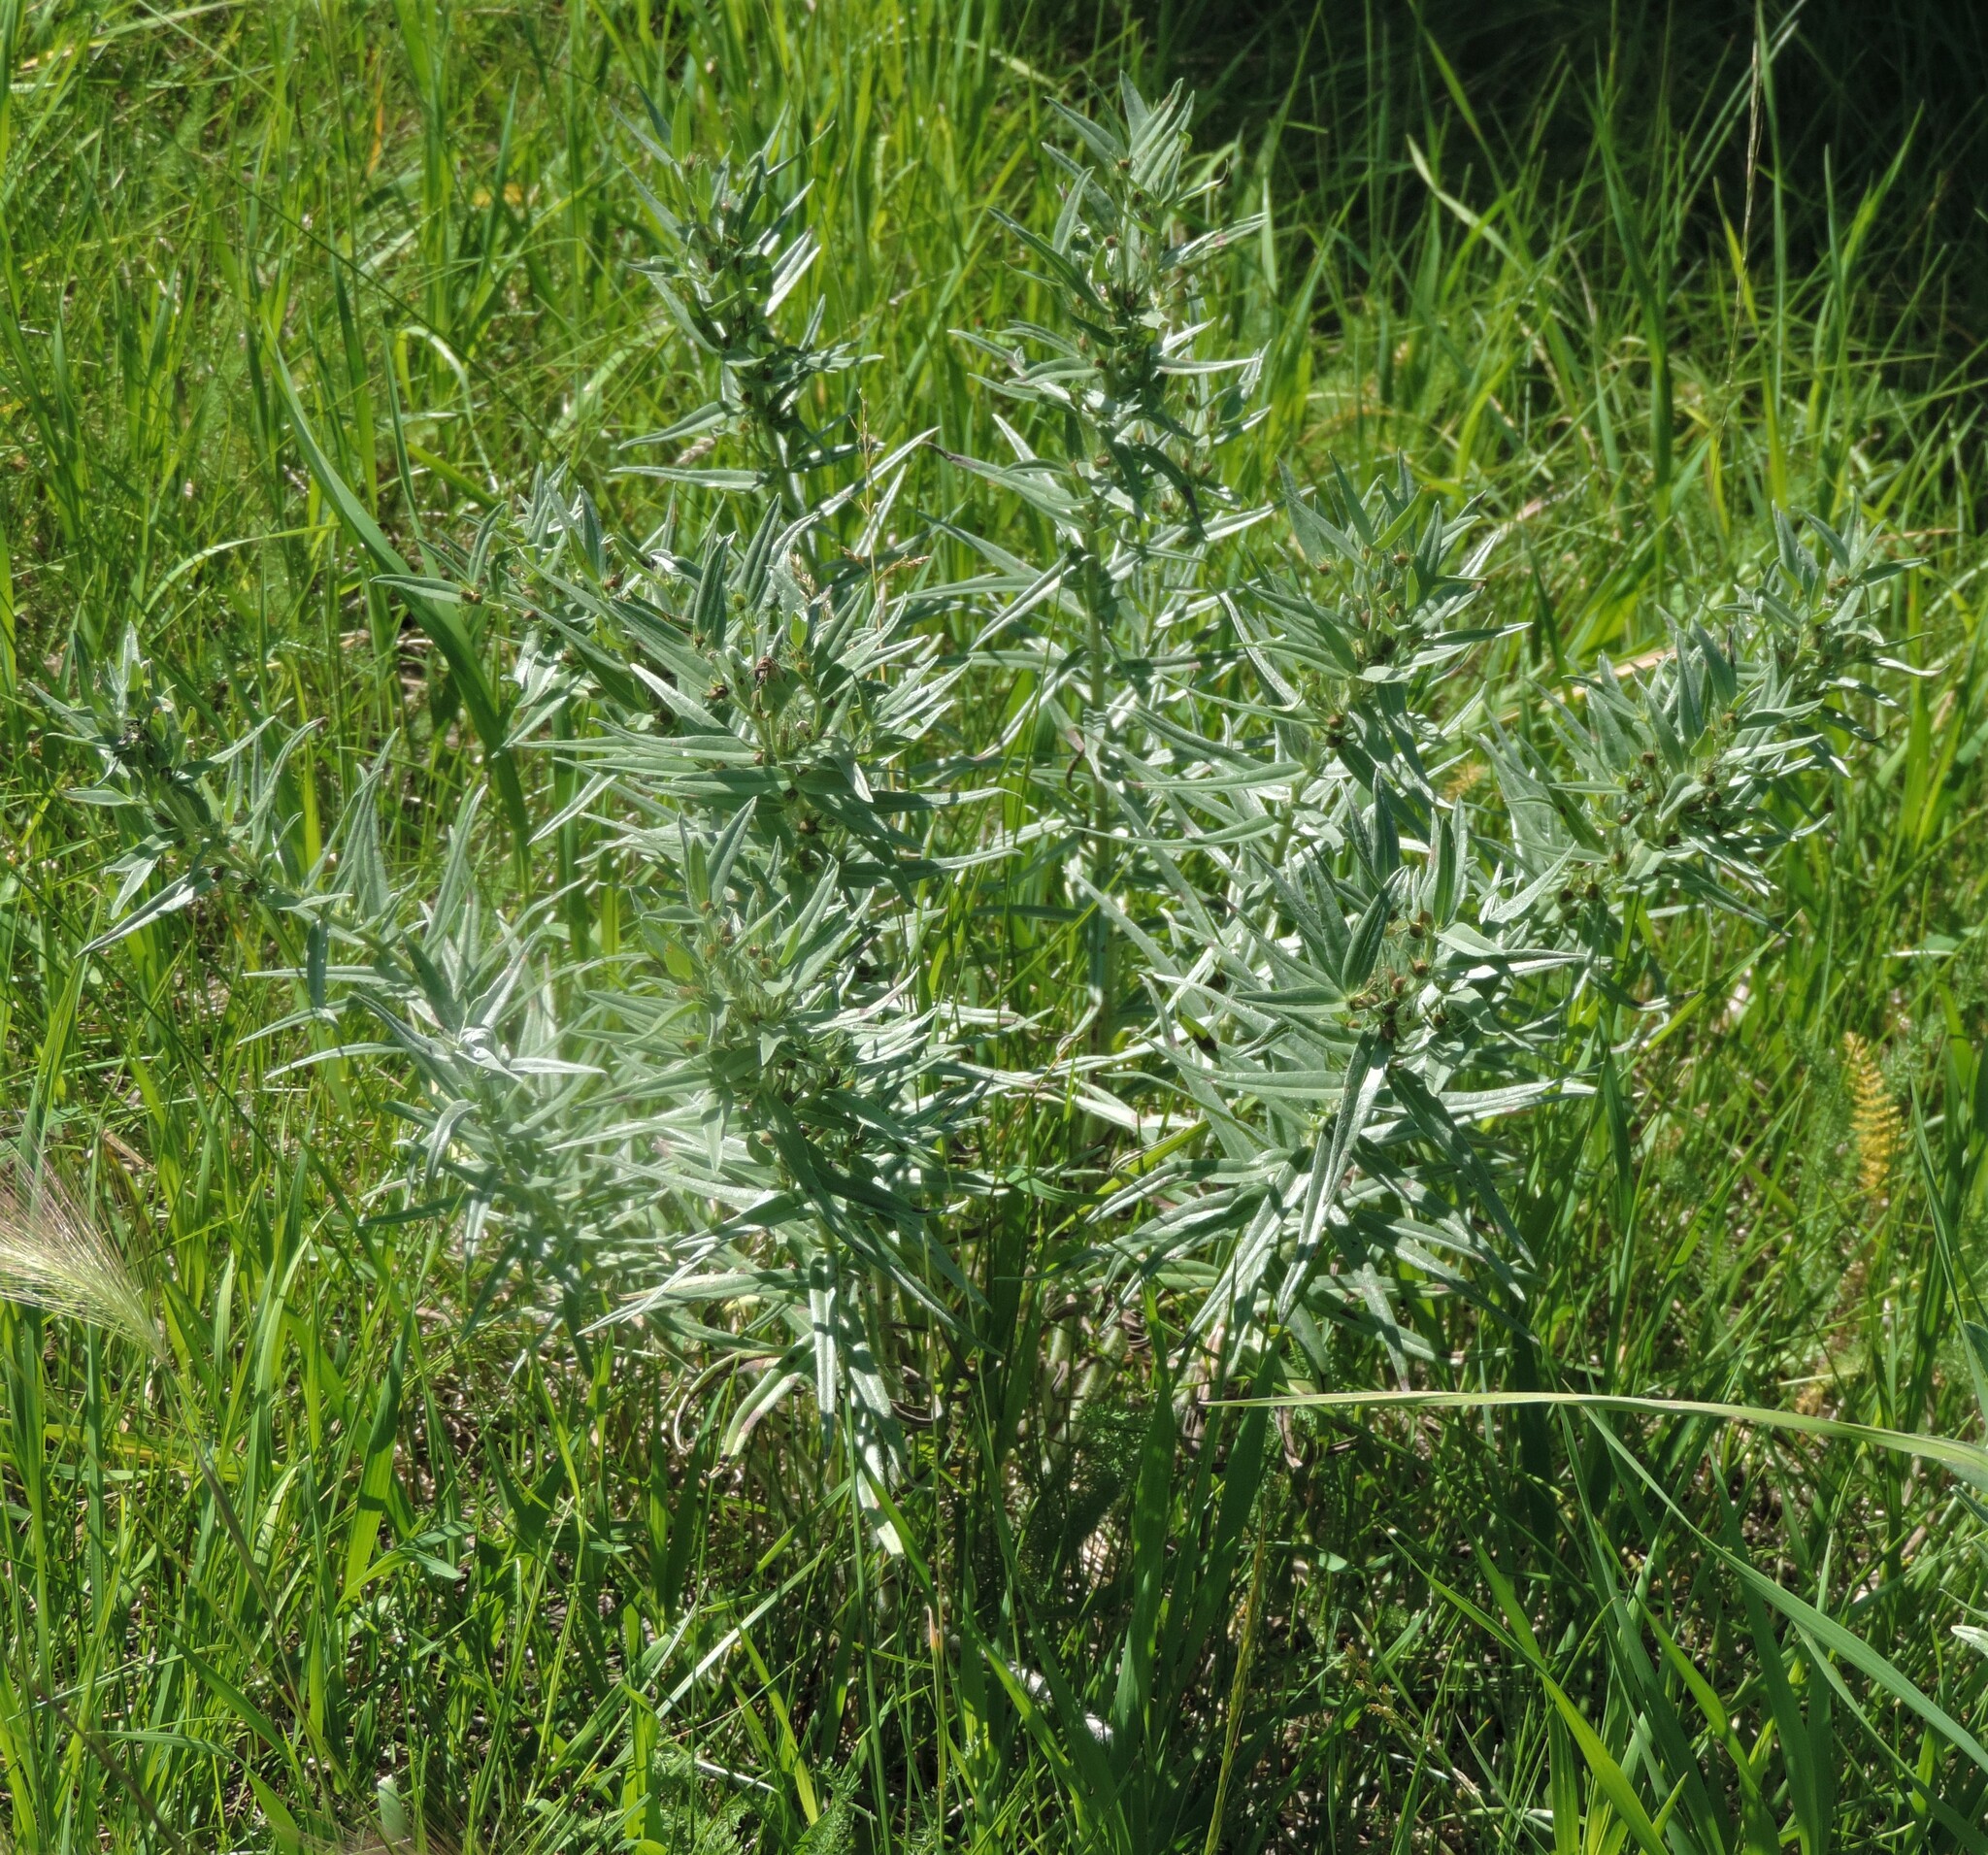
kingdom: Plantae
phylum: Tracheophyta
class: Magnoliopsida
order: Boraginales
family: Boraginaceae
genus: Lithospermum
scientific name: Lithospermum ruderale
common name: Western gromwell
